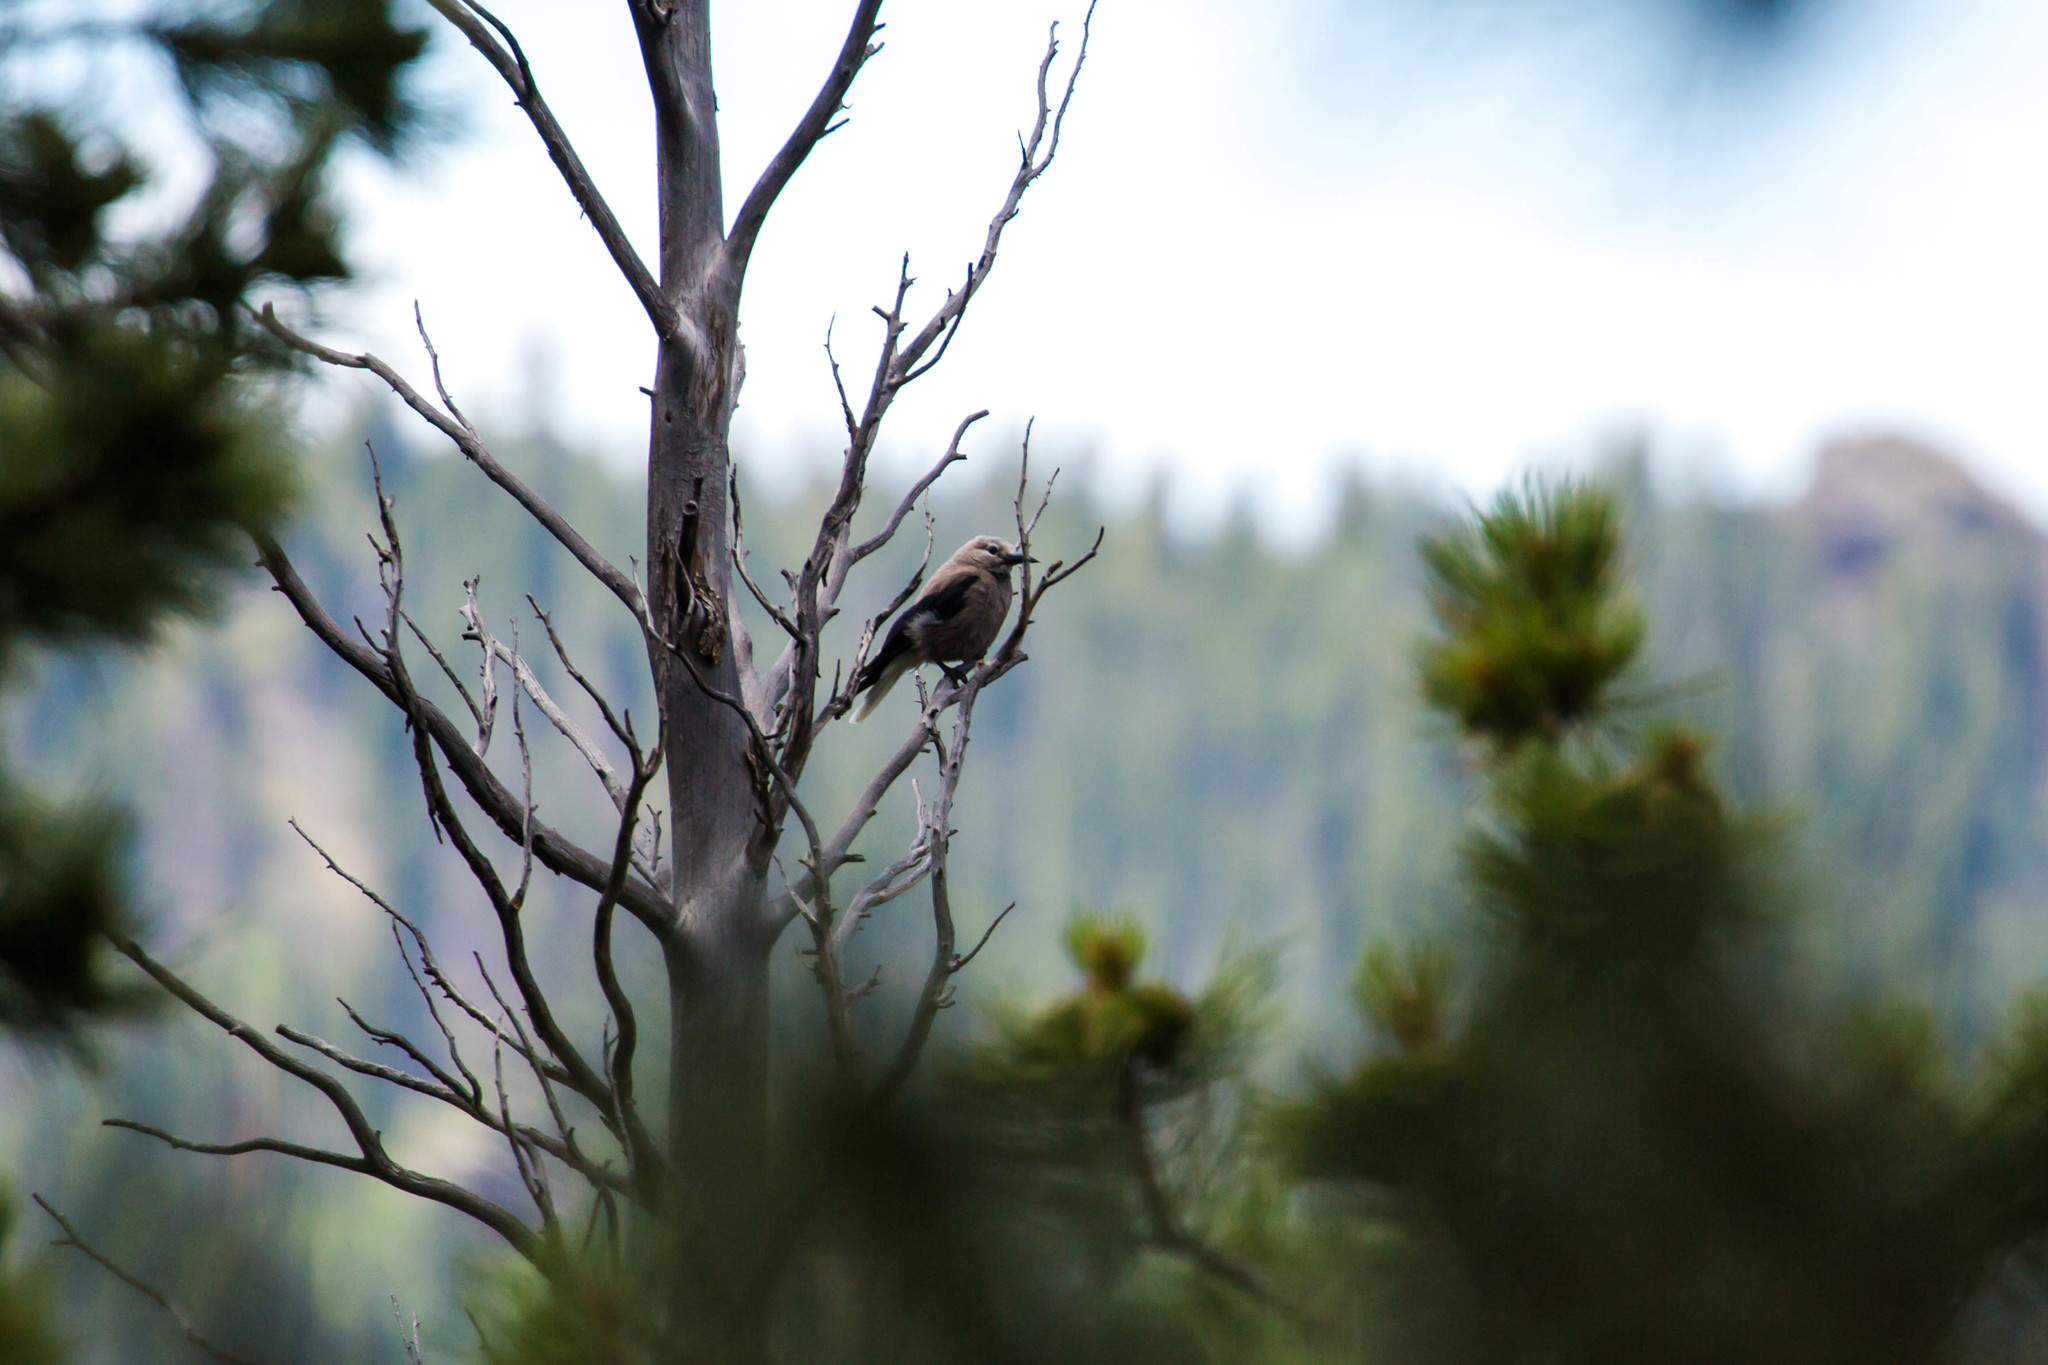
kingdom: Animalia
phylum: Chordata
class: Aves
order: Passeriformes
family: Corvidae
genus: Nucifraga
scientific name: Nucifraga columbiana
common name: Clark's nutcracker
